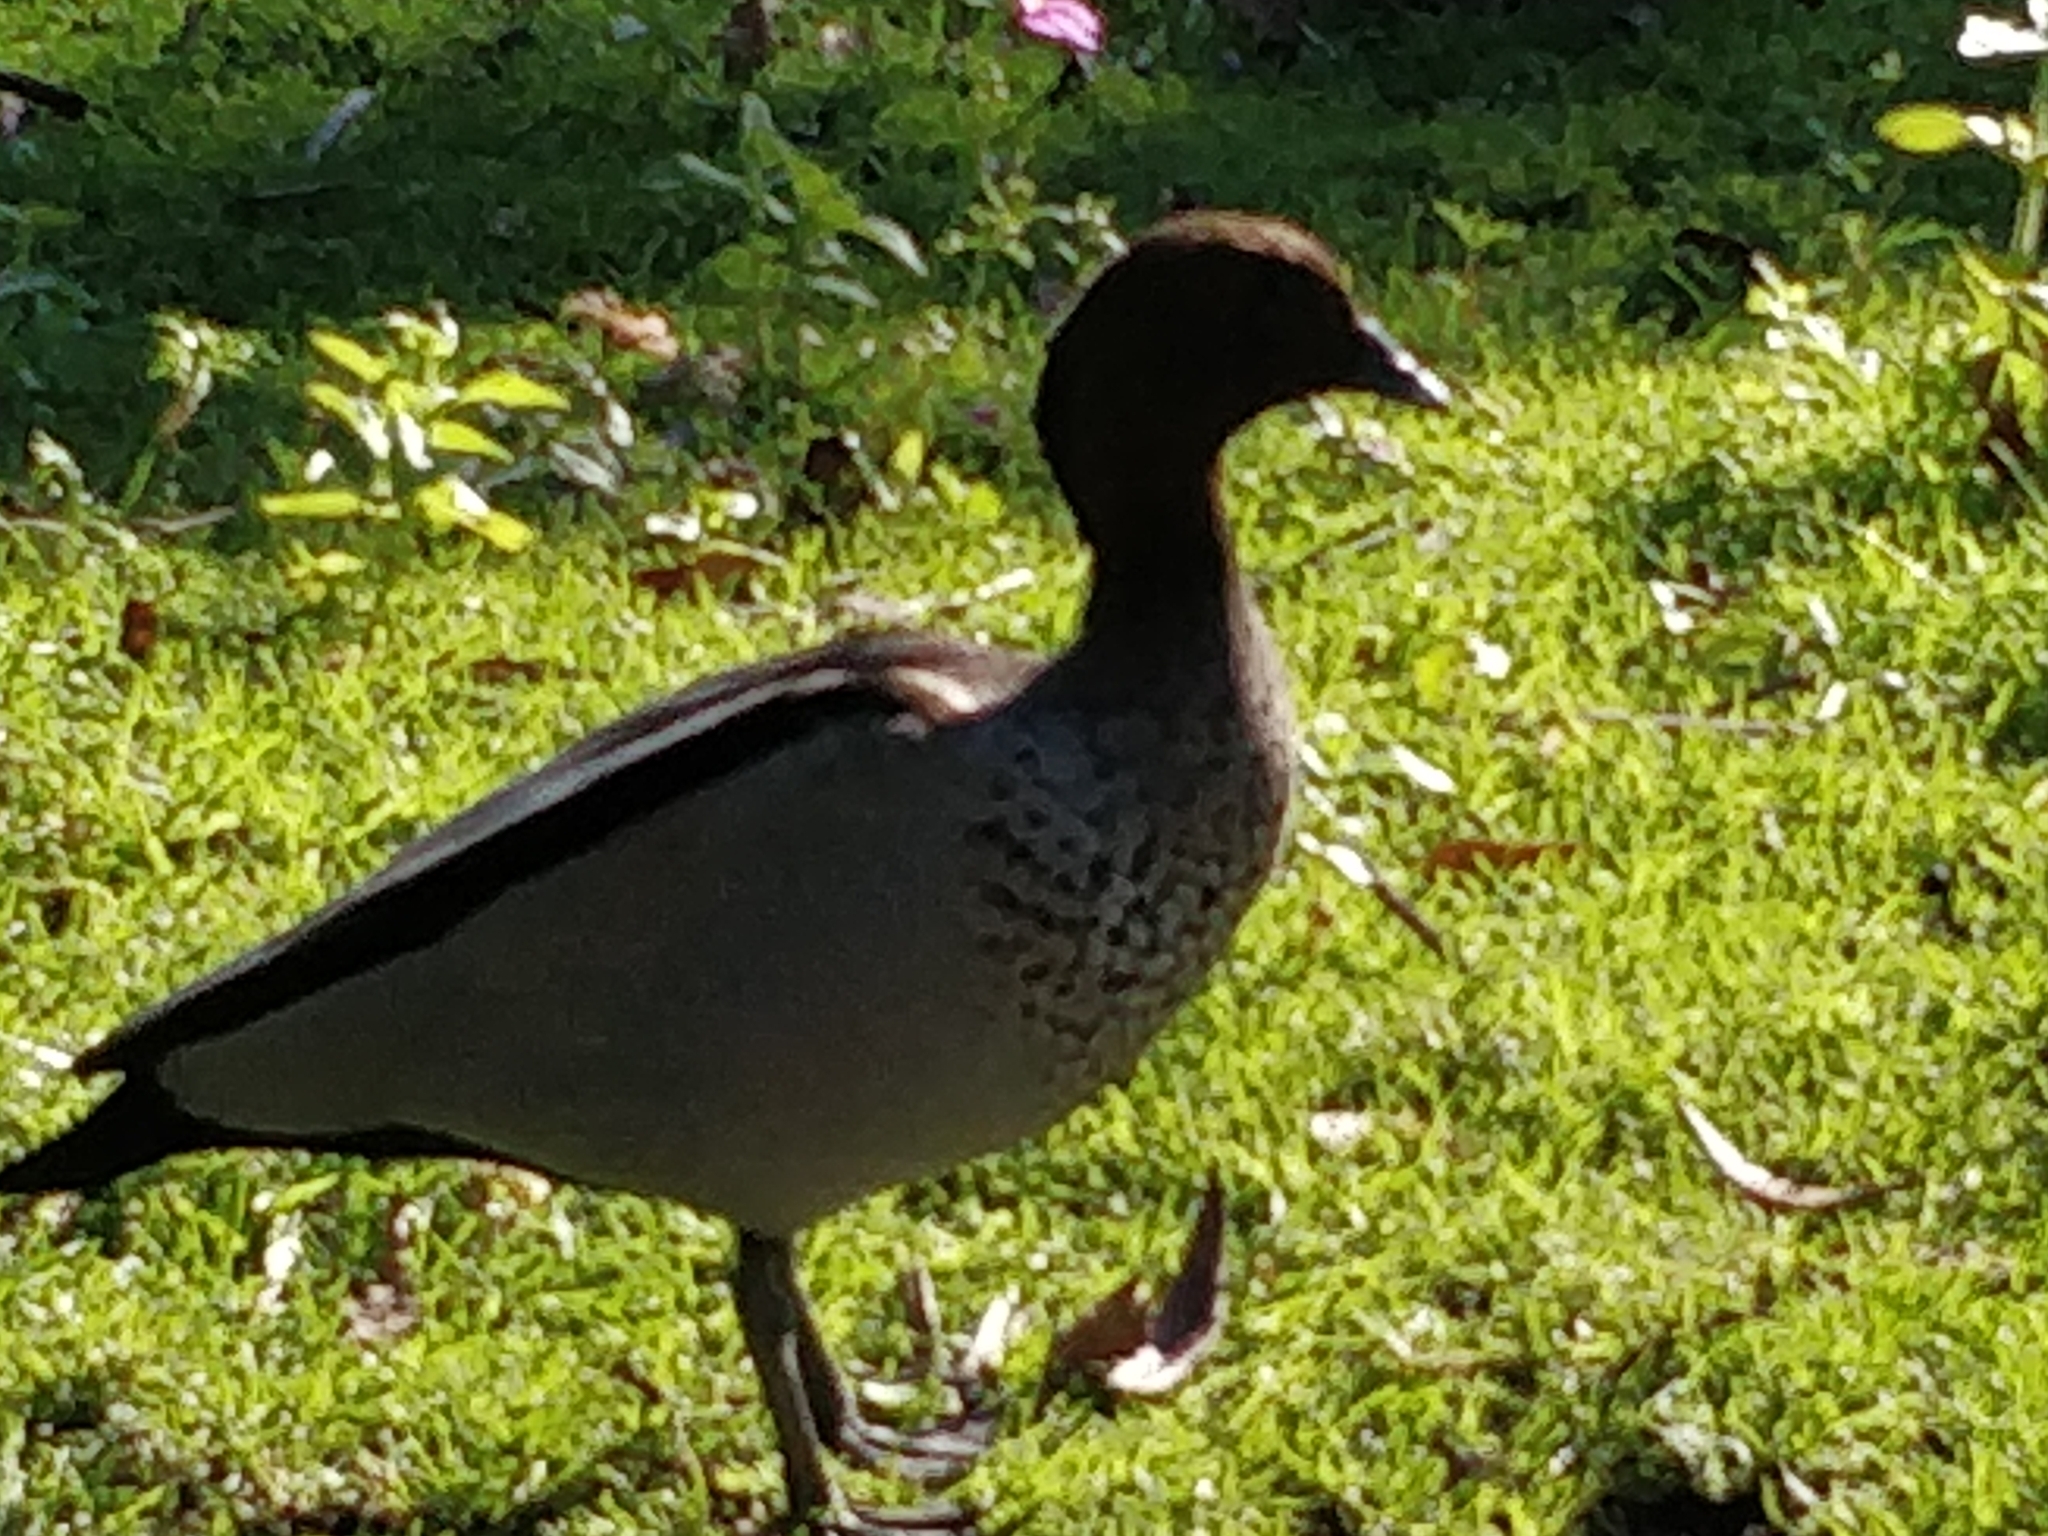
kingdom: Animalia
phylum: Chordata
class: Aves
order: Anseriformes
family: Anatidae
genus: Chenonetta
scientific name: Chenonetta jubata
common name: Maned duck
